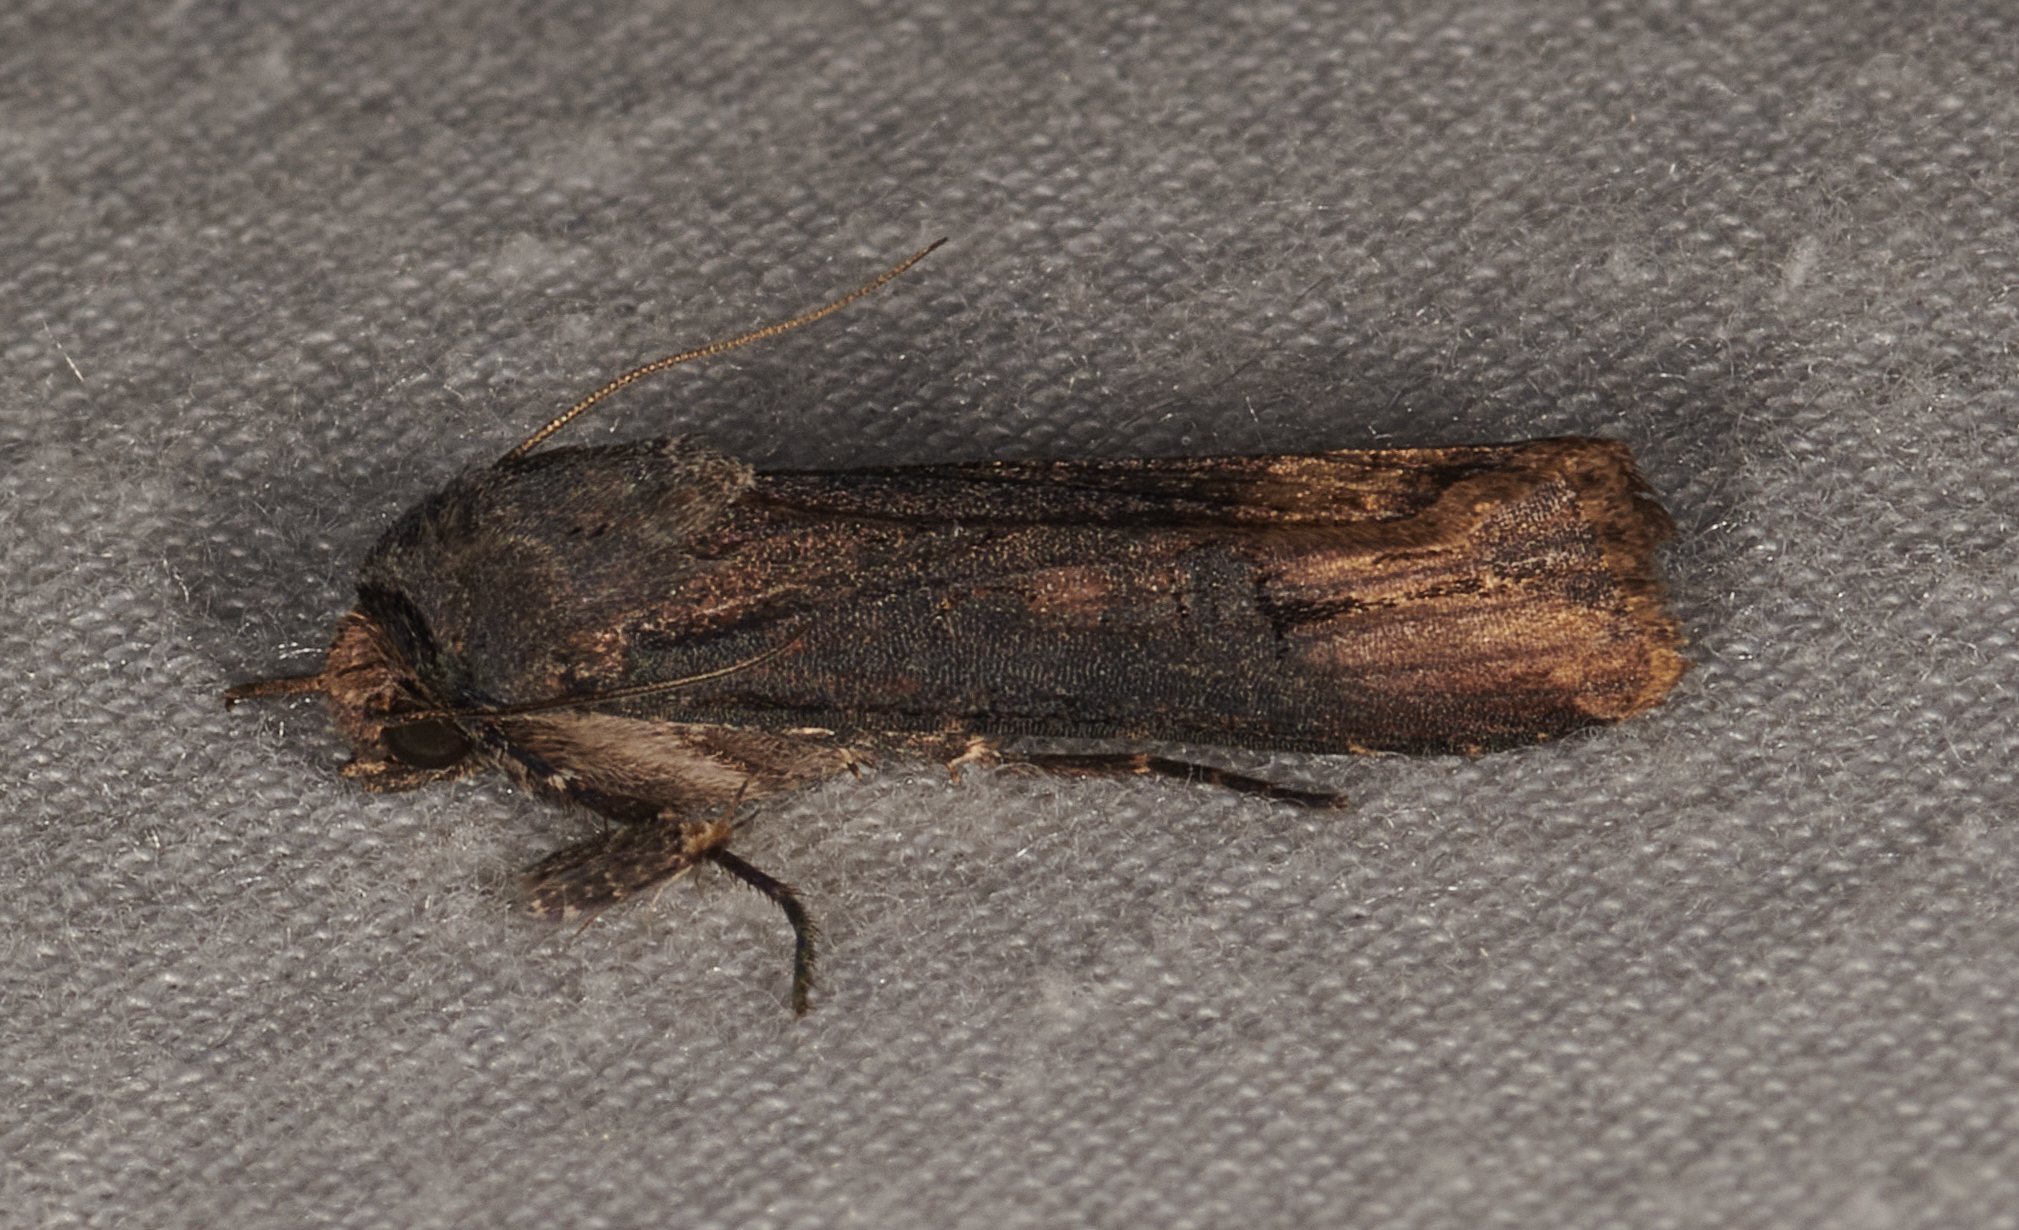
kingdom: Animalia
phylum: Arthropoda
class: Insecta
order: Lepidoptera
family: Noctuidae
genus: Agrotis
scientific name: Agrotis ipsilon
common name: Dark sword-grass
